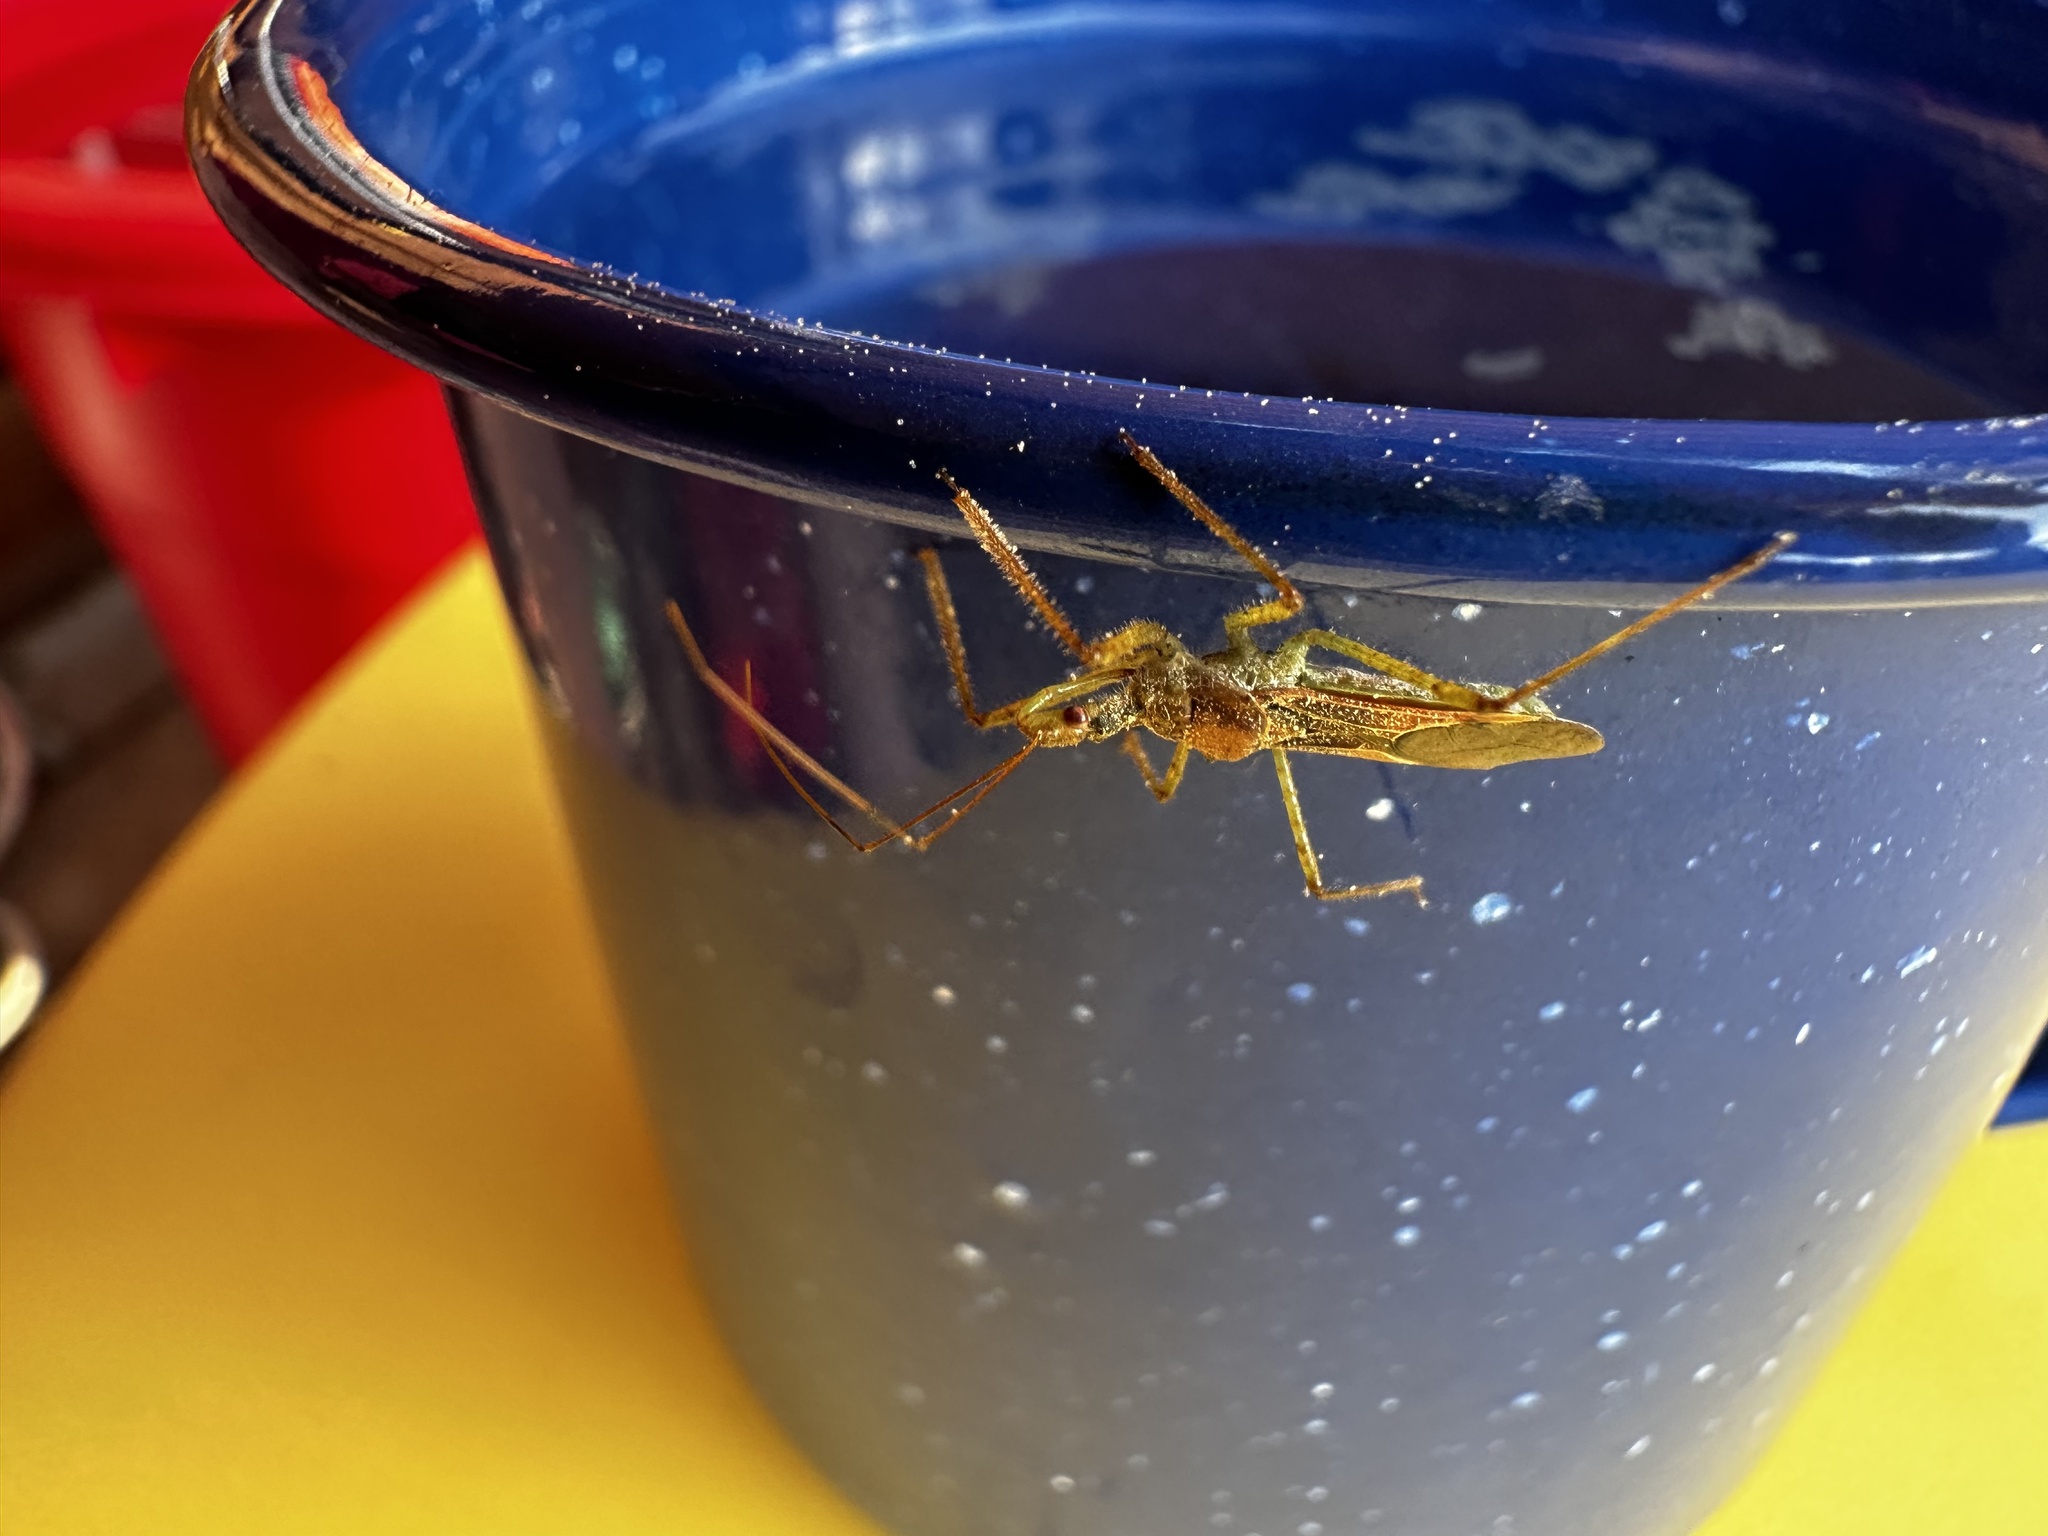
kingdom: Animalia
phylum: Arthropoda
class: Insecta
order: Hemiptera
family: Reduviidae
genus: Zelus
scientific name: Zelus renardii
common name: Assassin bug
